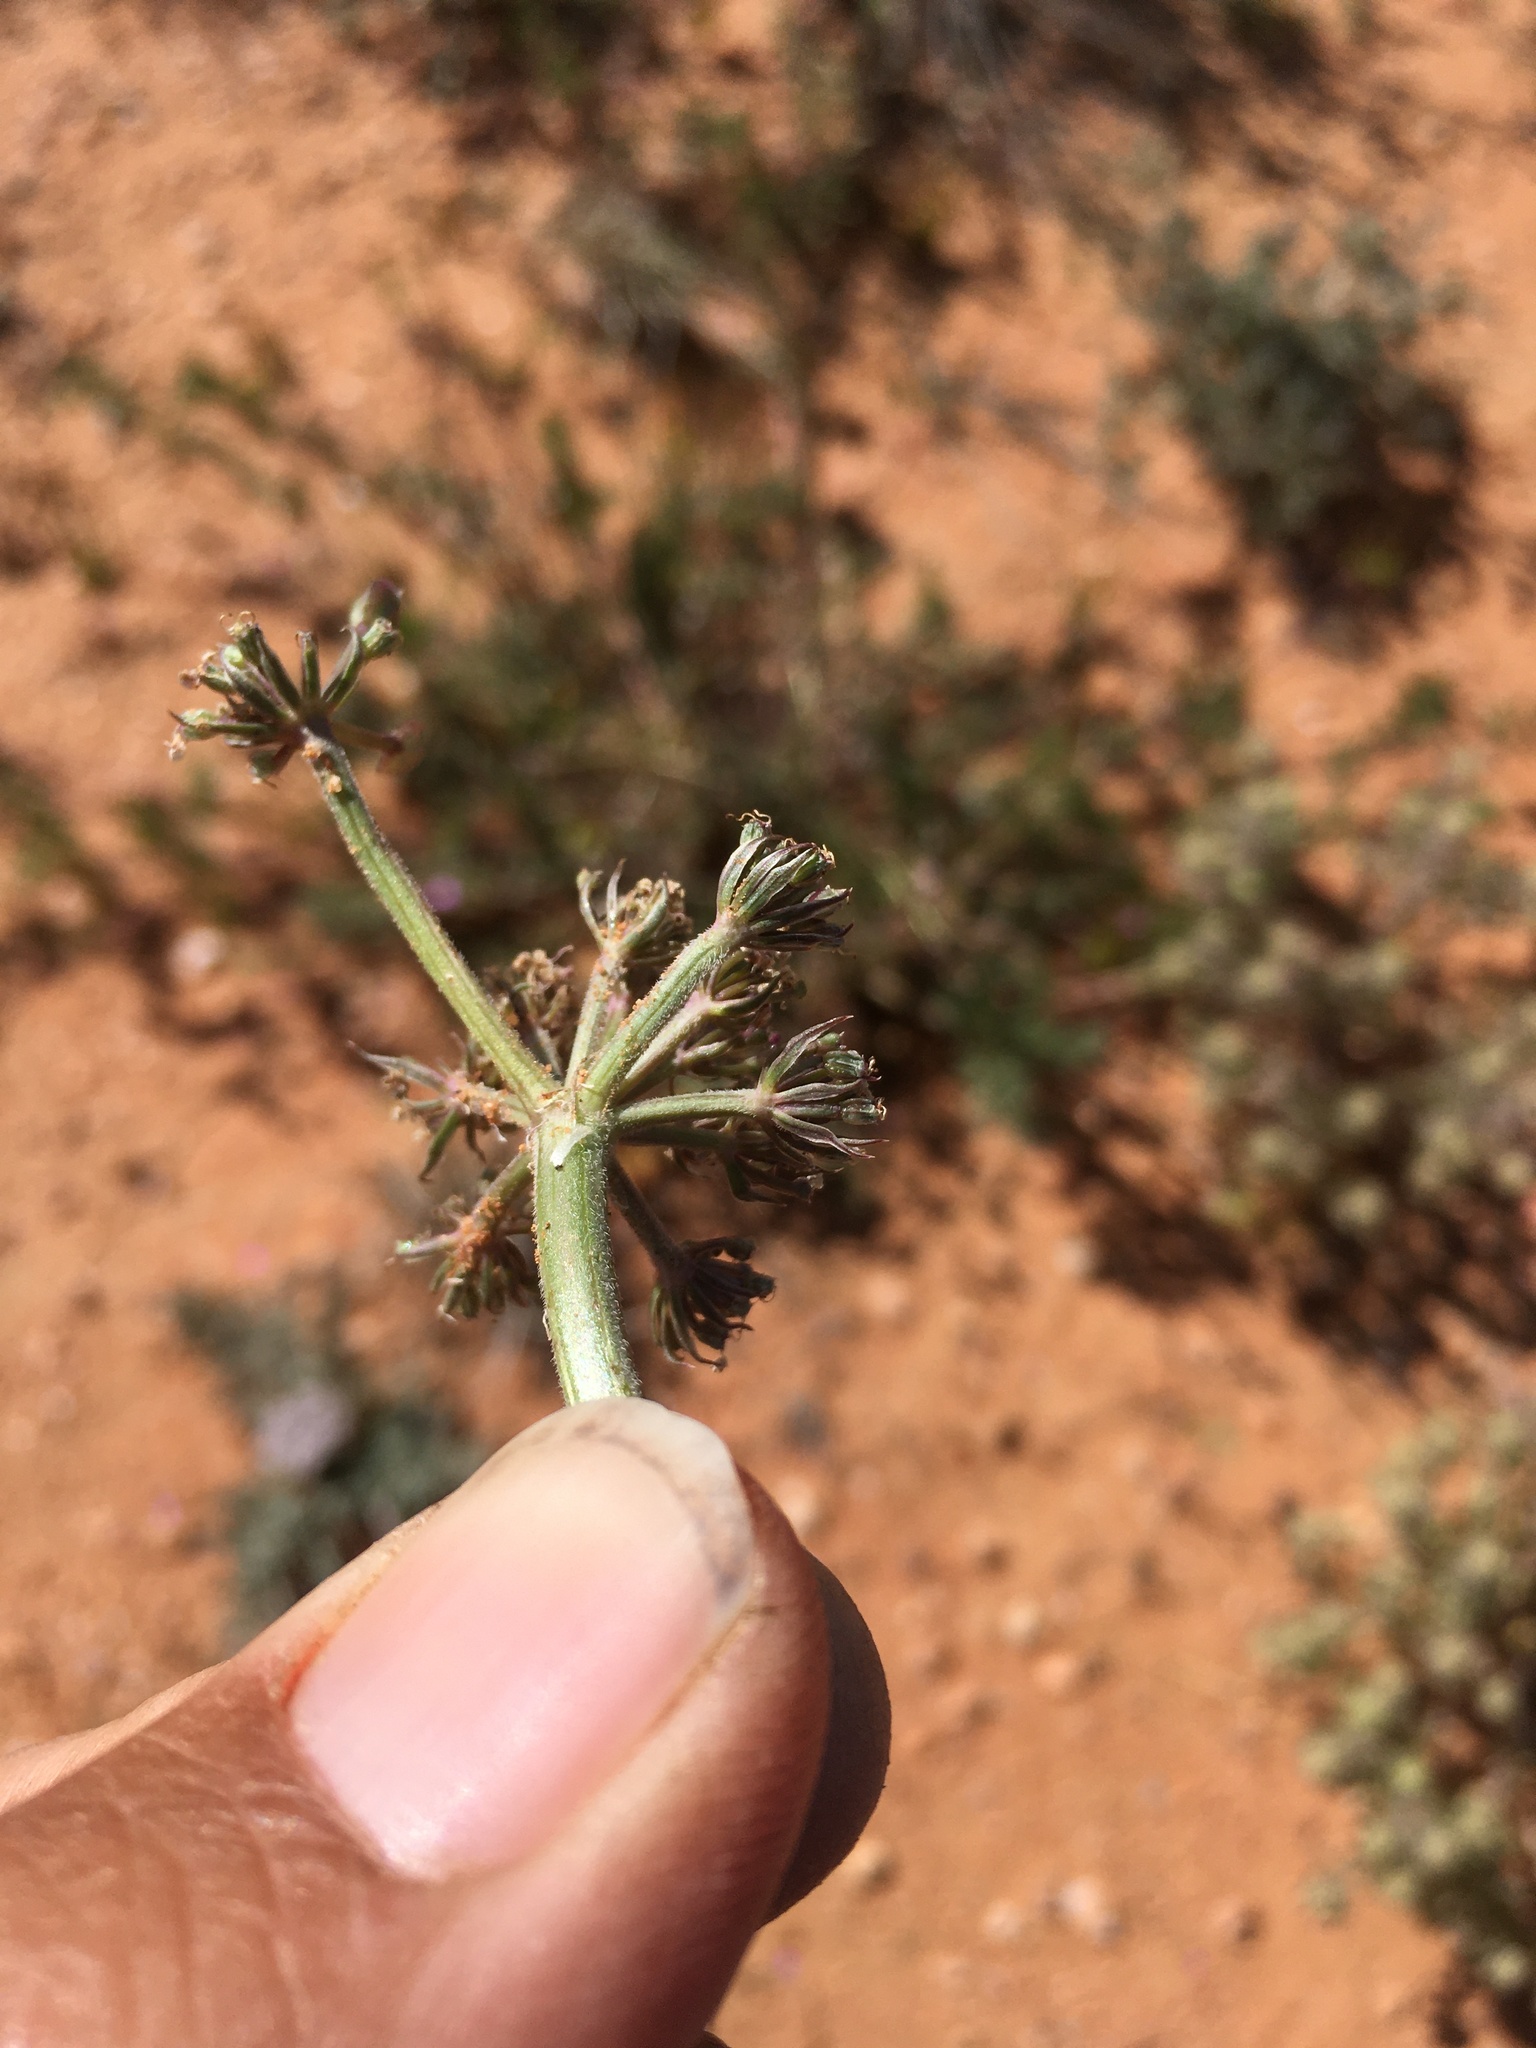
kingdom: Plantae
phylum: Tracheophyta
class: Magnoliopsida
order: Apiales
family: Apiaceae
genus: Lomatium
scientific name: Lomatium nevadense
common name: Nevada lomatium
